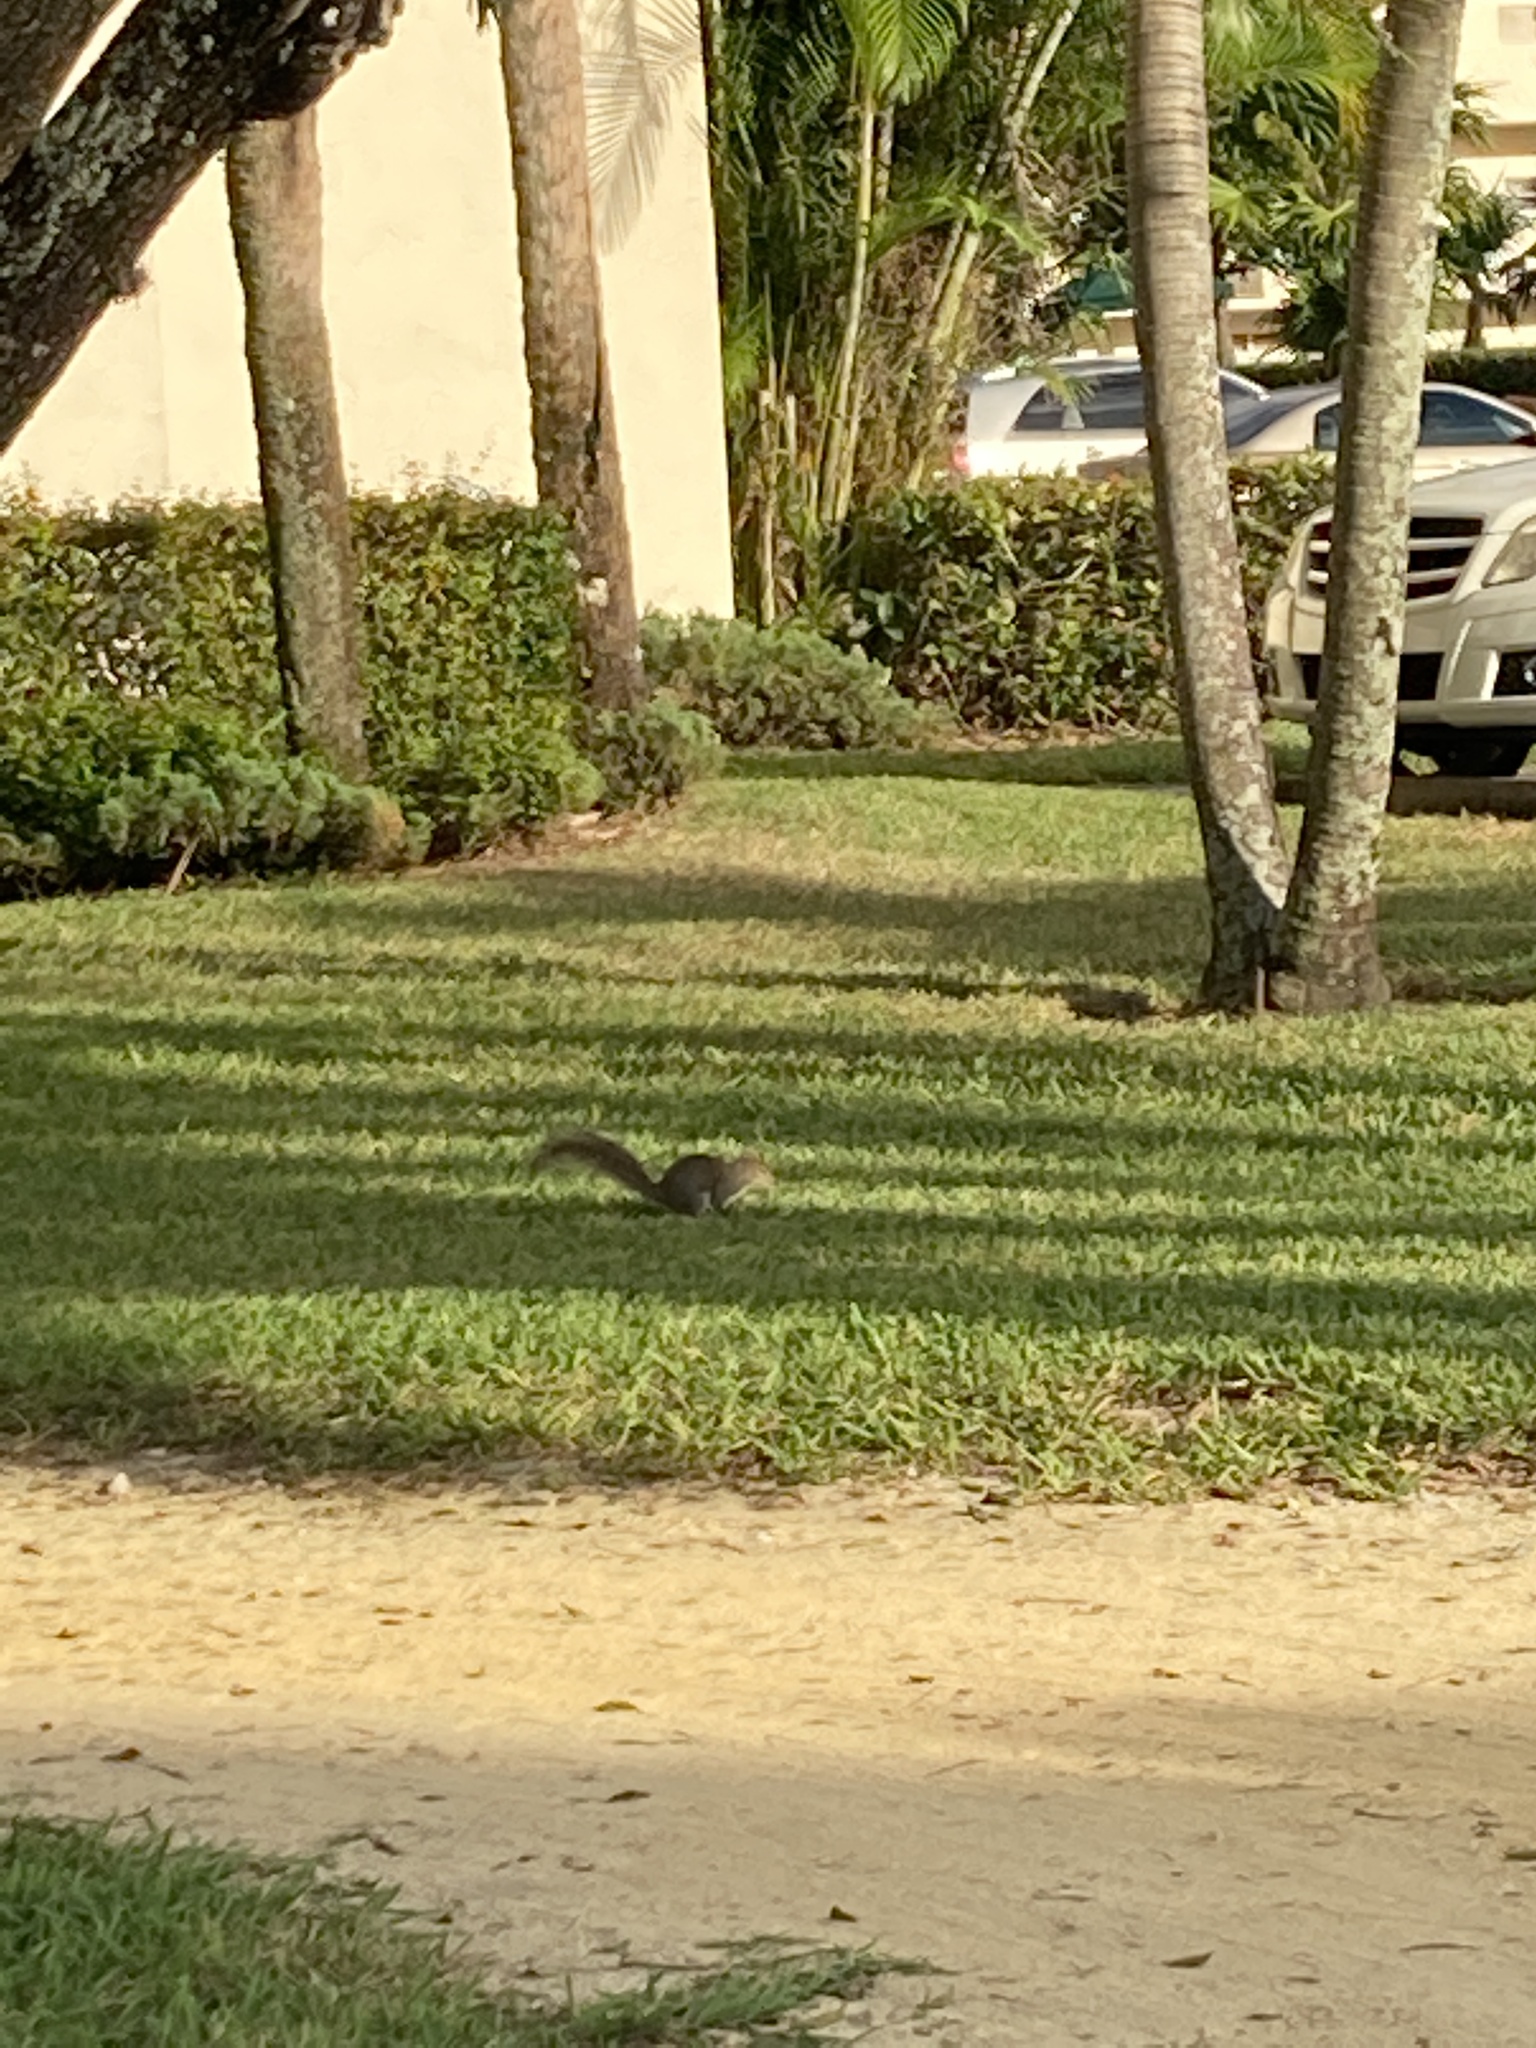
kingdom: Animalia
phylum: Chordata
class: Mammalia
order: Rodentia
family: Sciuridae
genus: Sciurus
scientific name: Sciurus carolinensis
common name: Eastern gray squirrel
